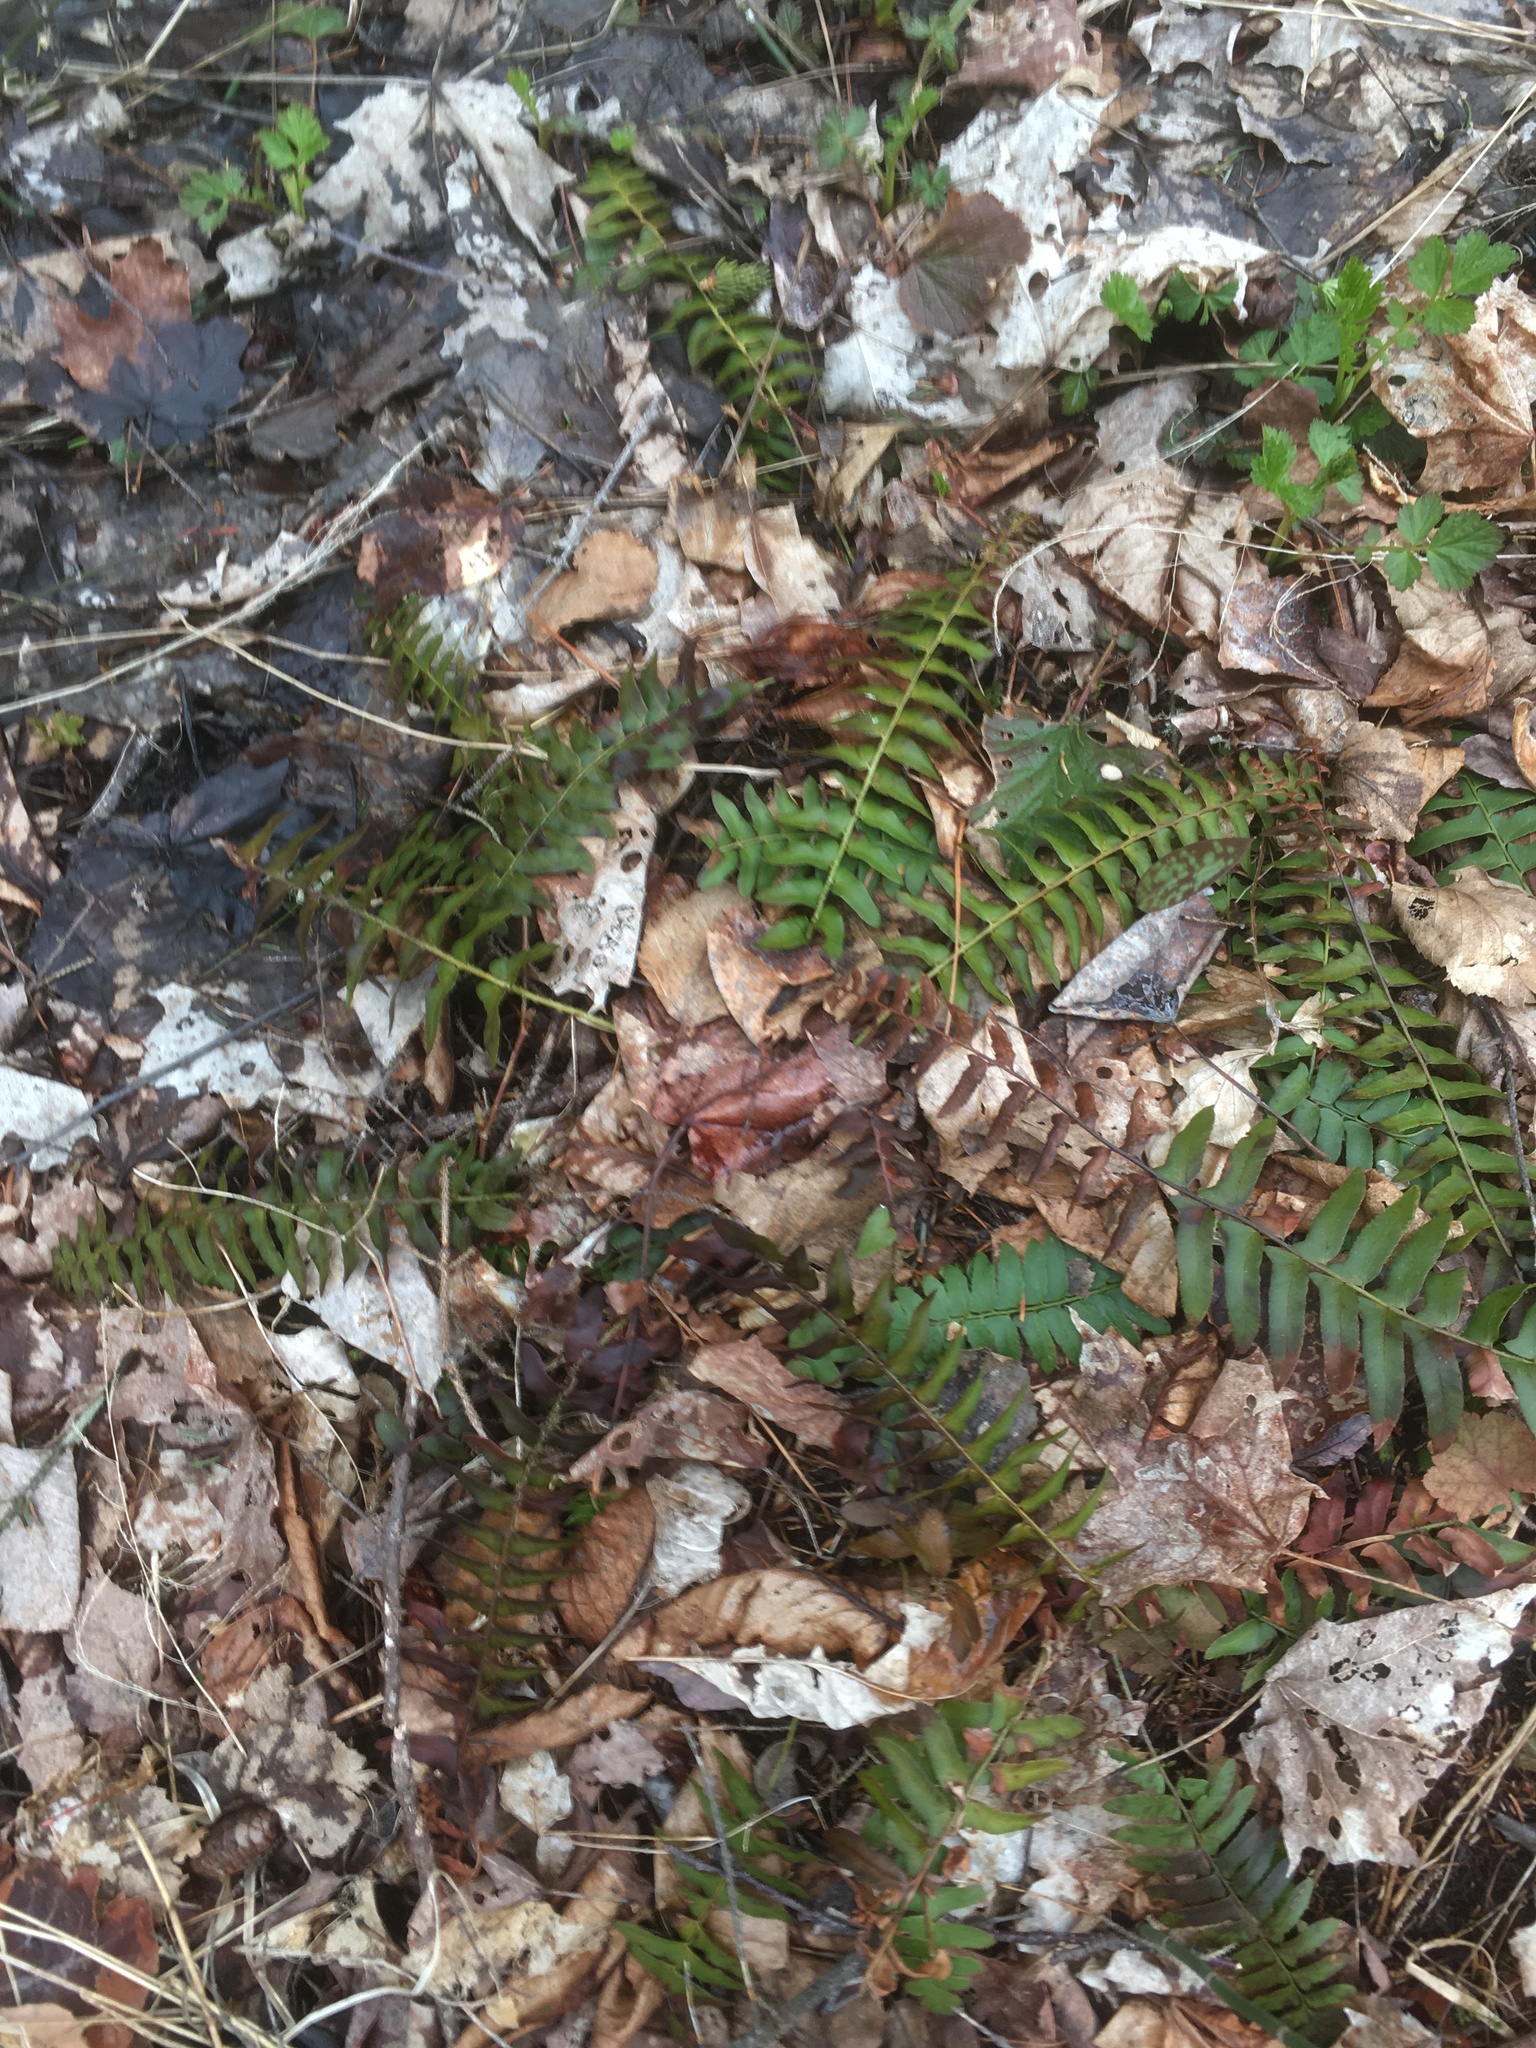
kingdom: Plantae
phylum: Tracheophyta
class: Polypodiopsida
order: Polypodiales
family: Dryopteridaceae
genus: Polystichum
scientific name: Polystichum acrostichoides
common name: Christmas fern
